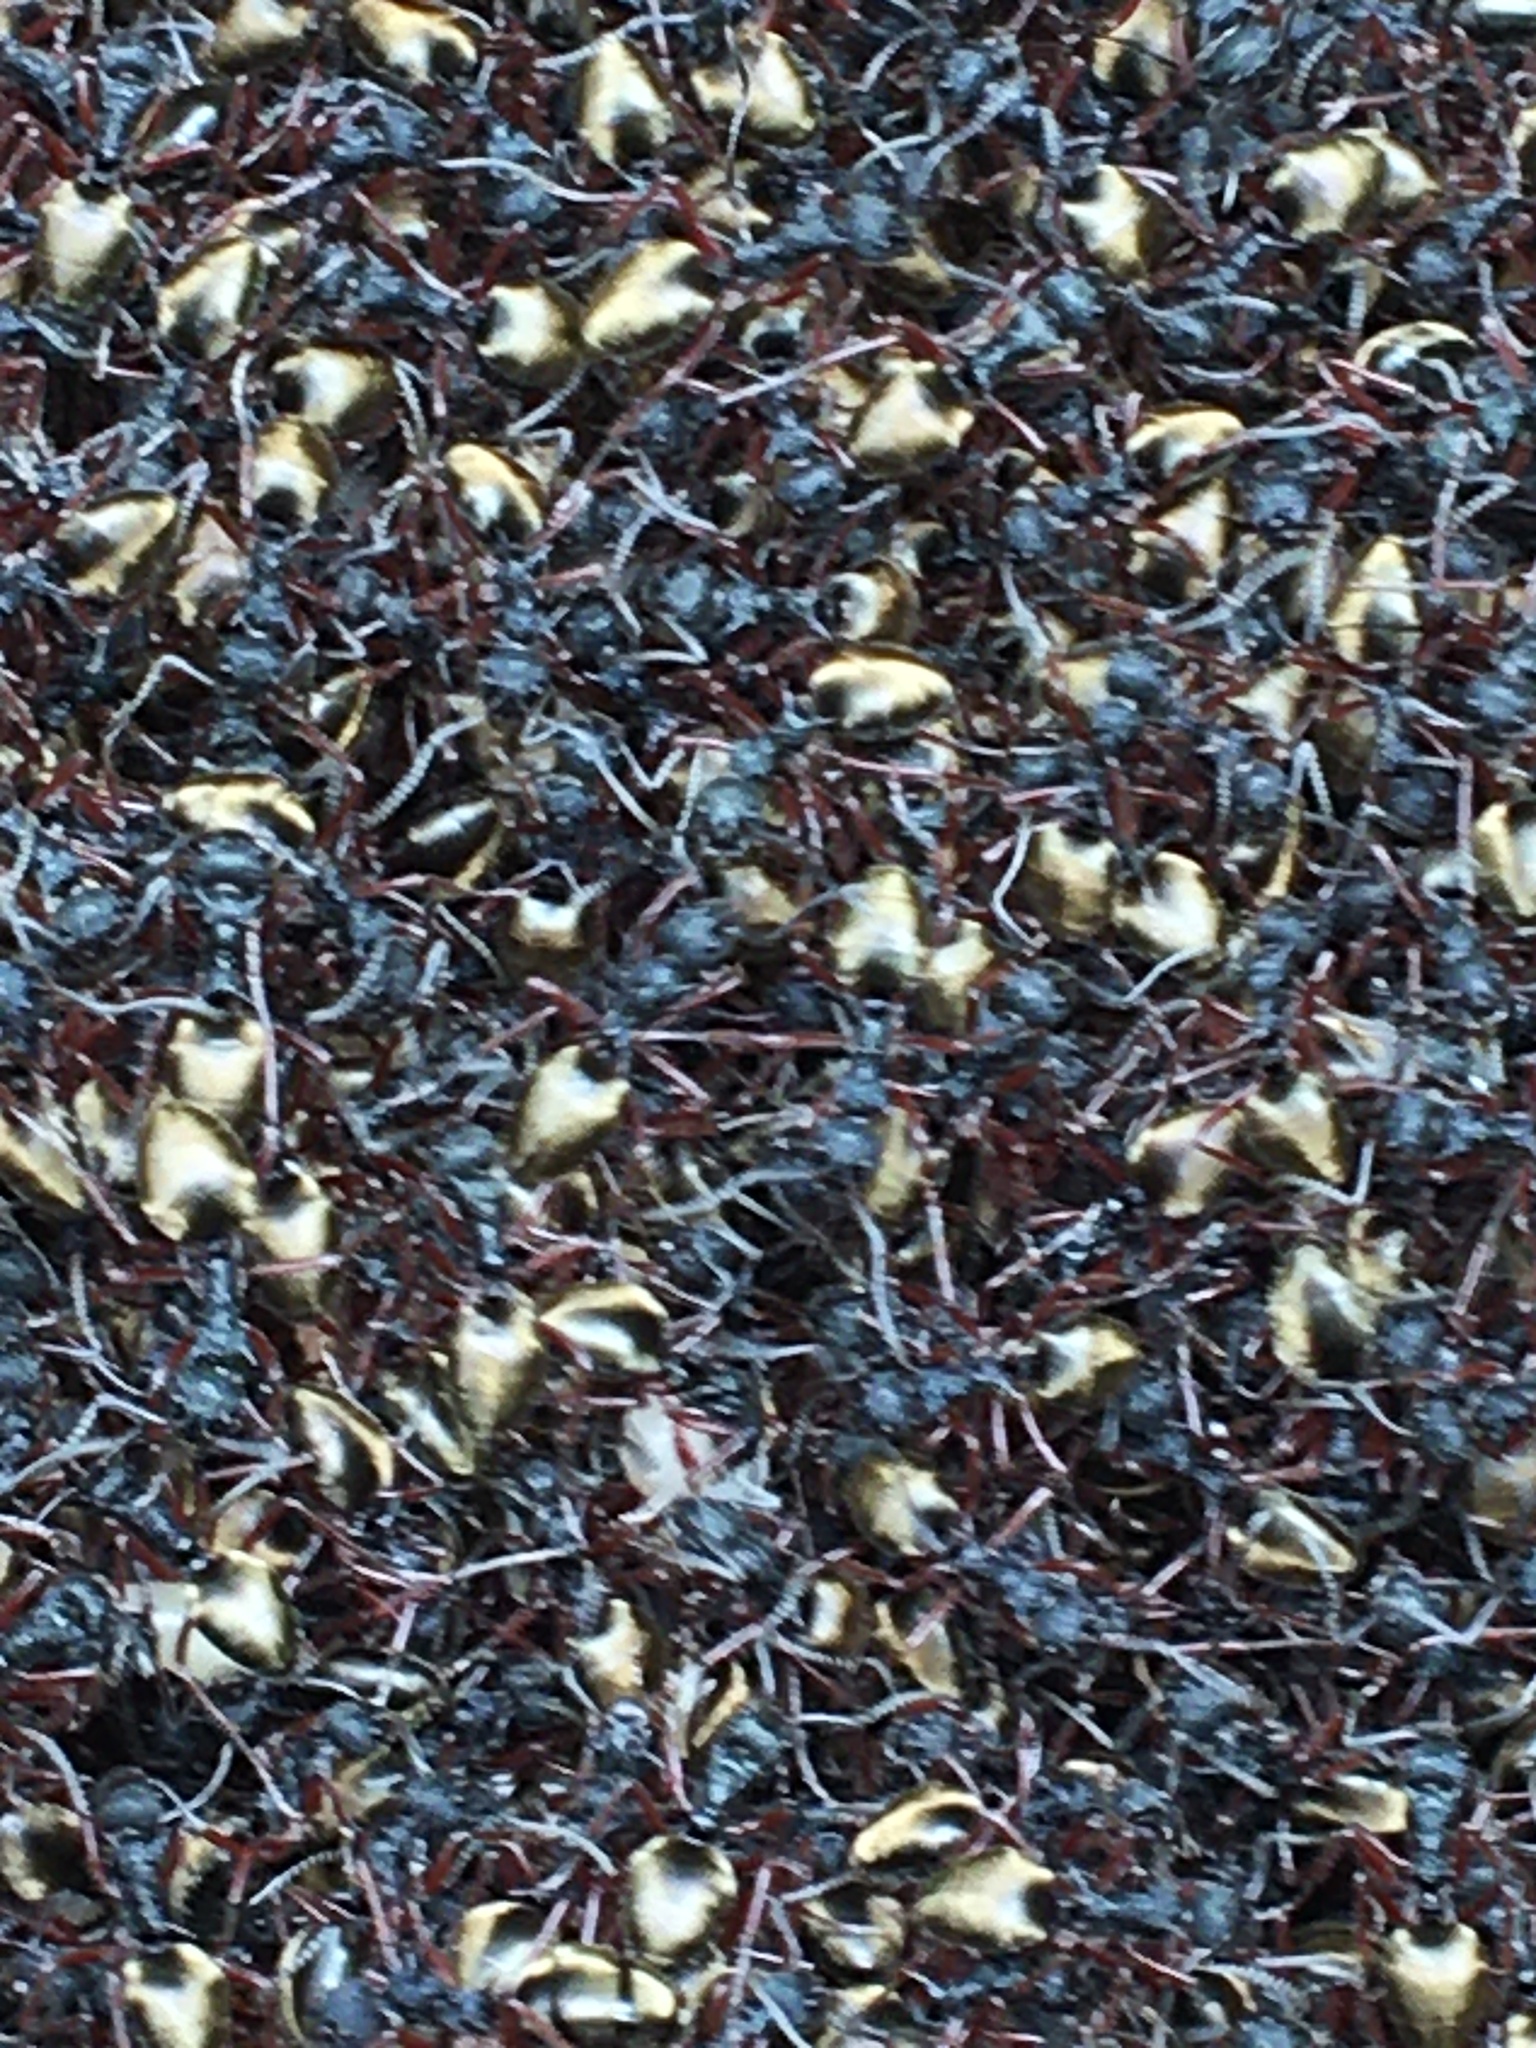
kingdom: Animalia
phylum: Arthropoda
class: Insecta
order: Hymenoptera
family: Formicidae
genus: Dolichoderus
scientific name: Dolichoderus doriae
